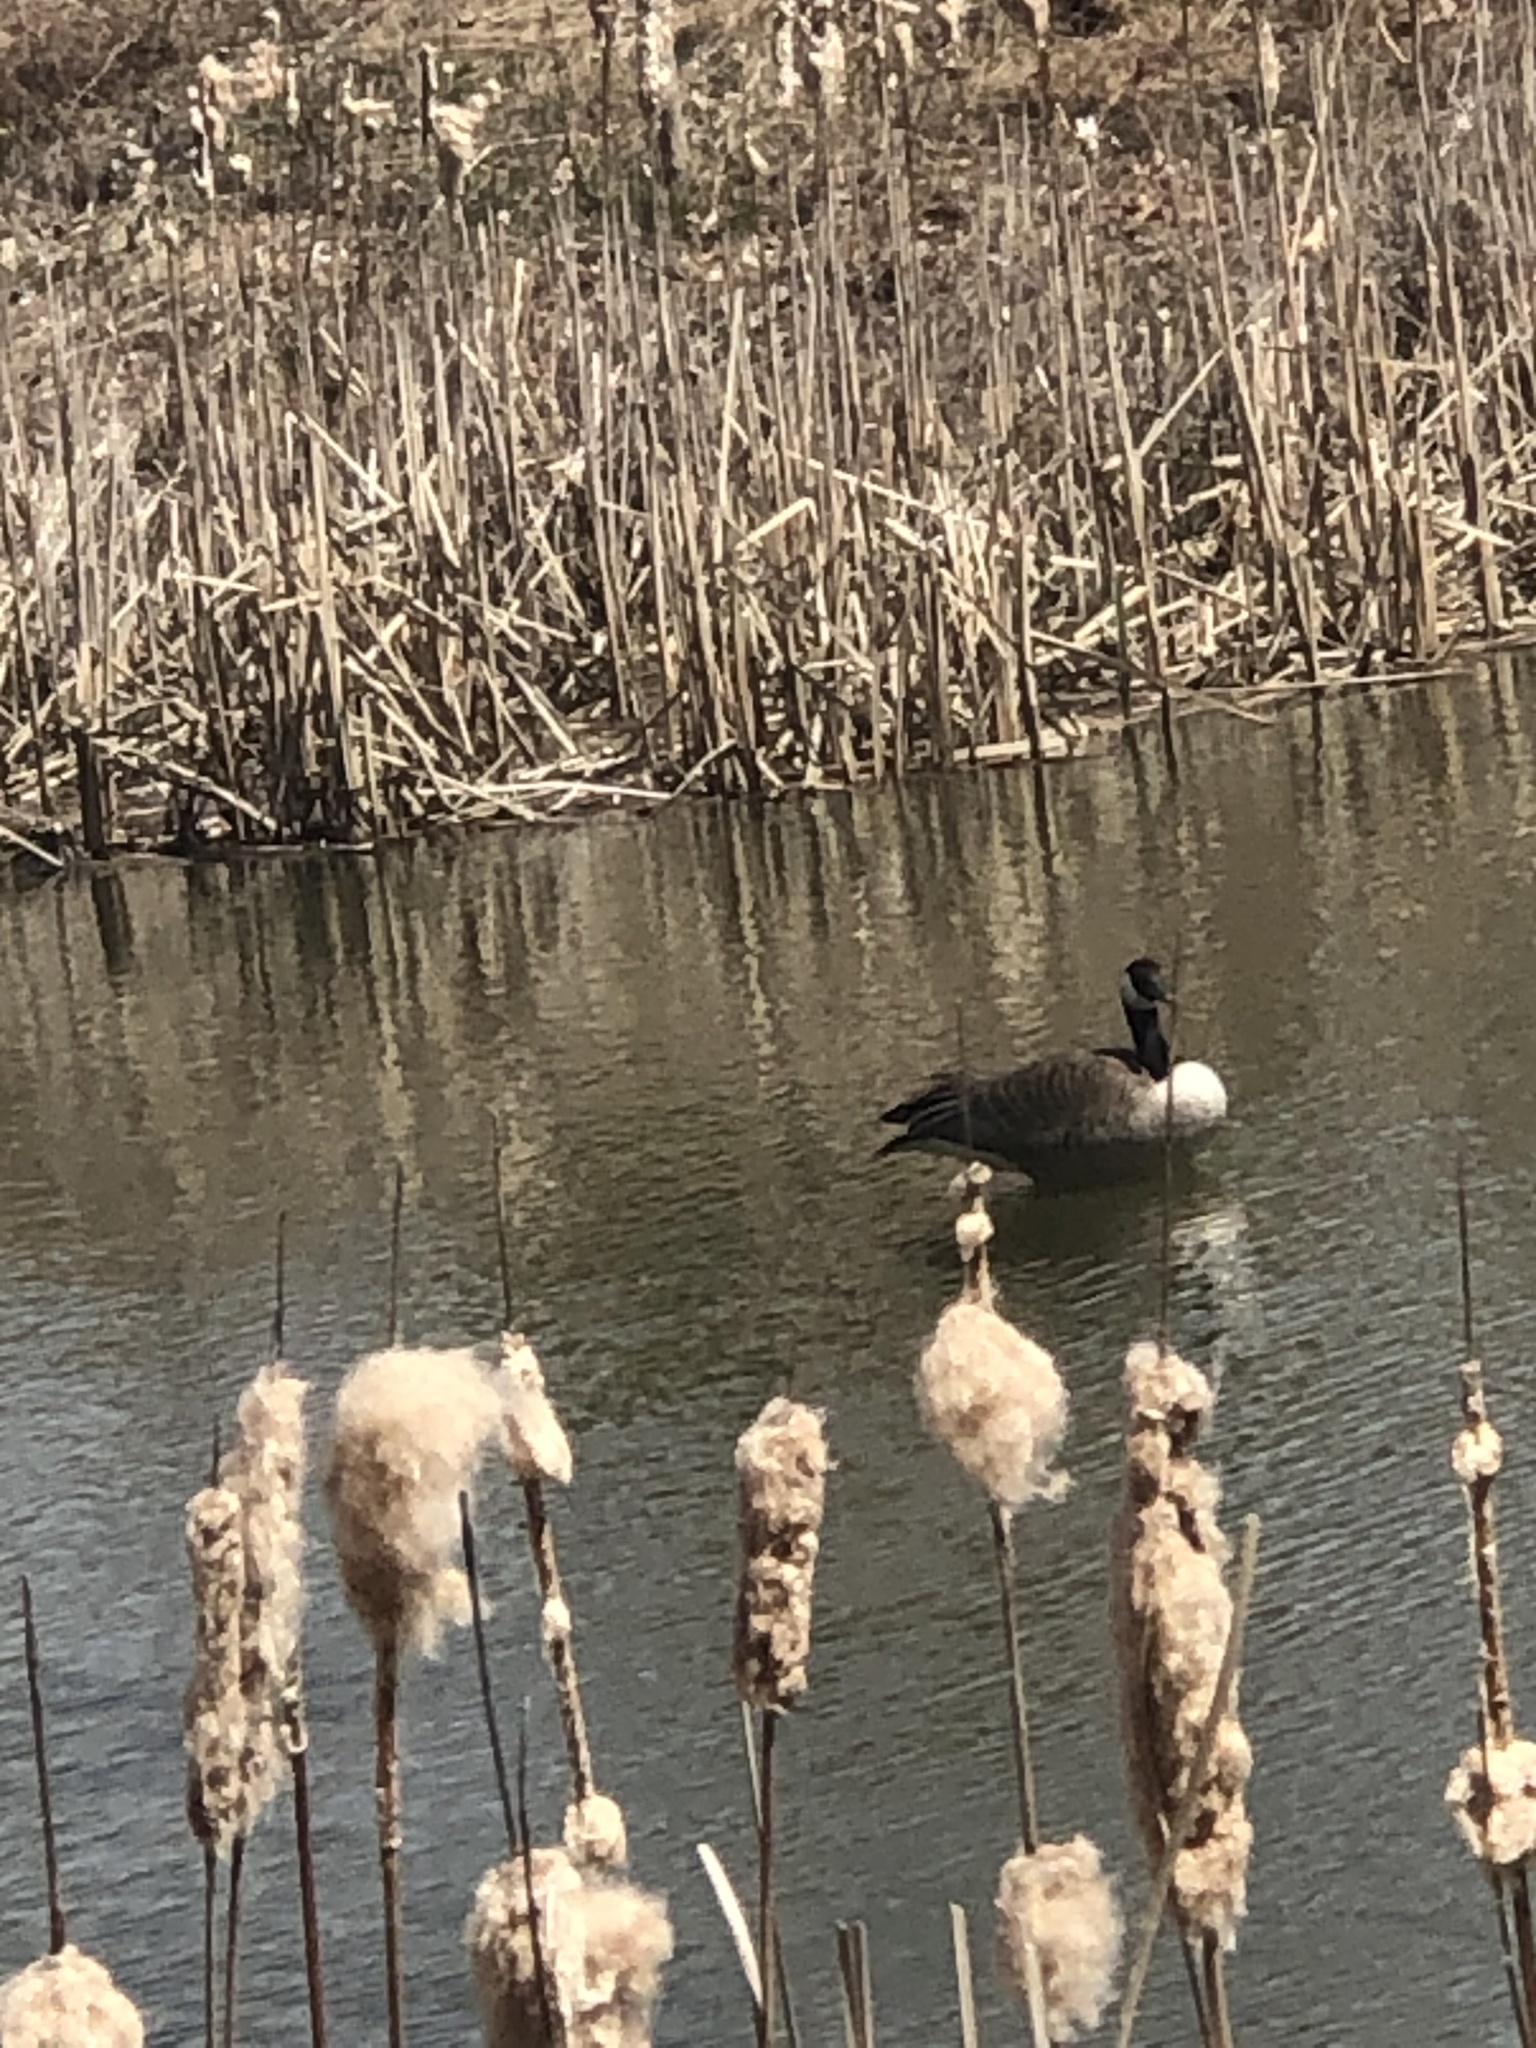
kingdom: Animalia
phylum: Chordata
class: Aves
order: Anseriformes
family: Anatidae
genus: Branta
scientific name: Branta canadensis
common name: Canada goose
